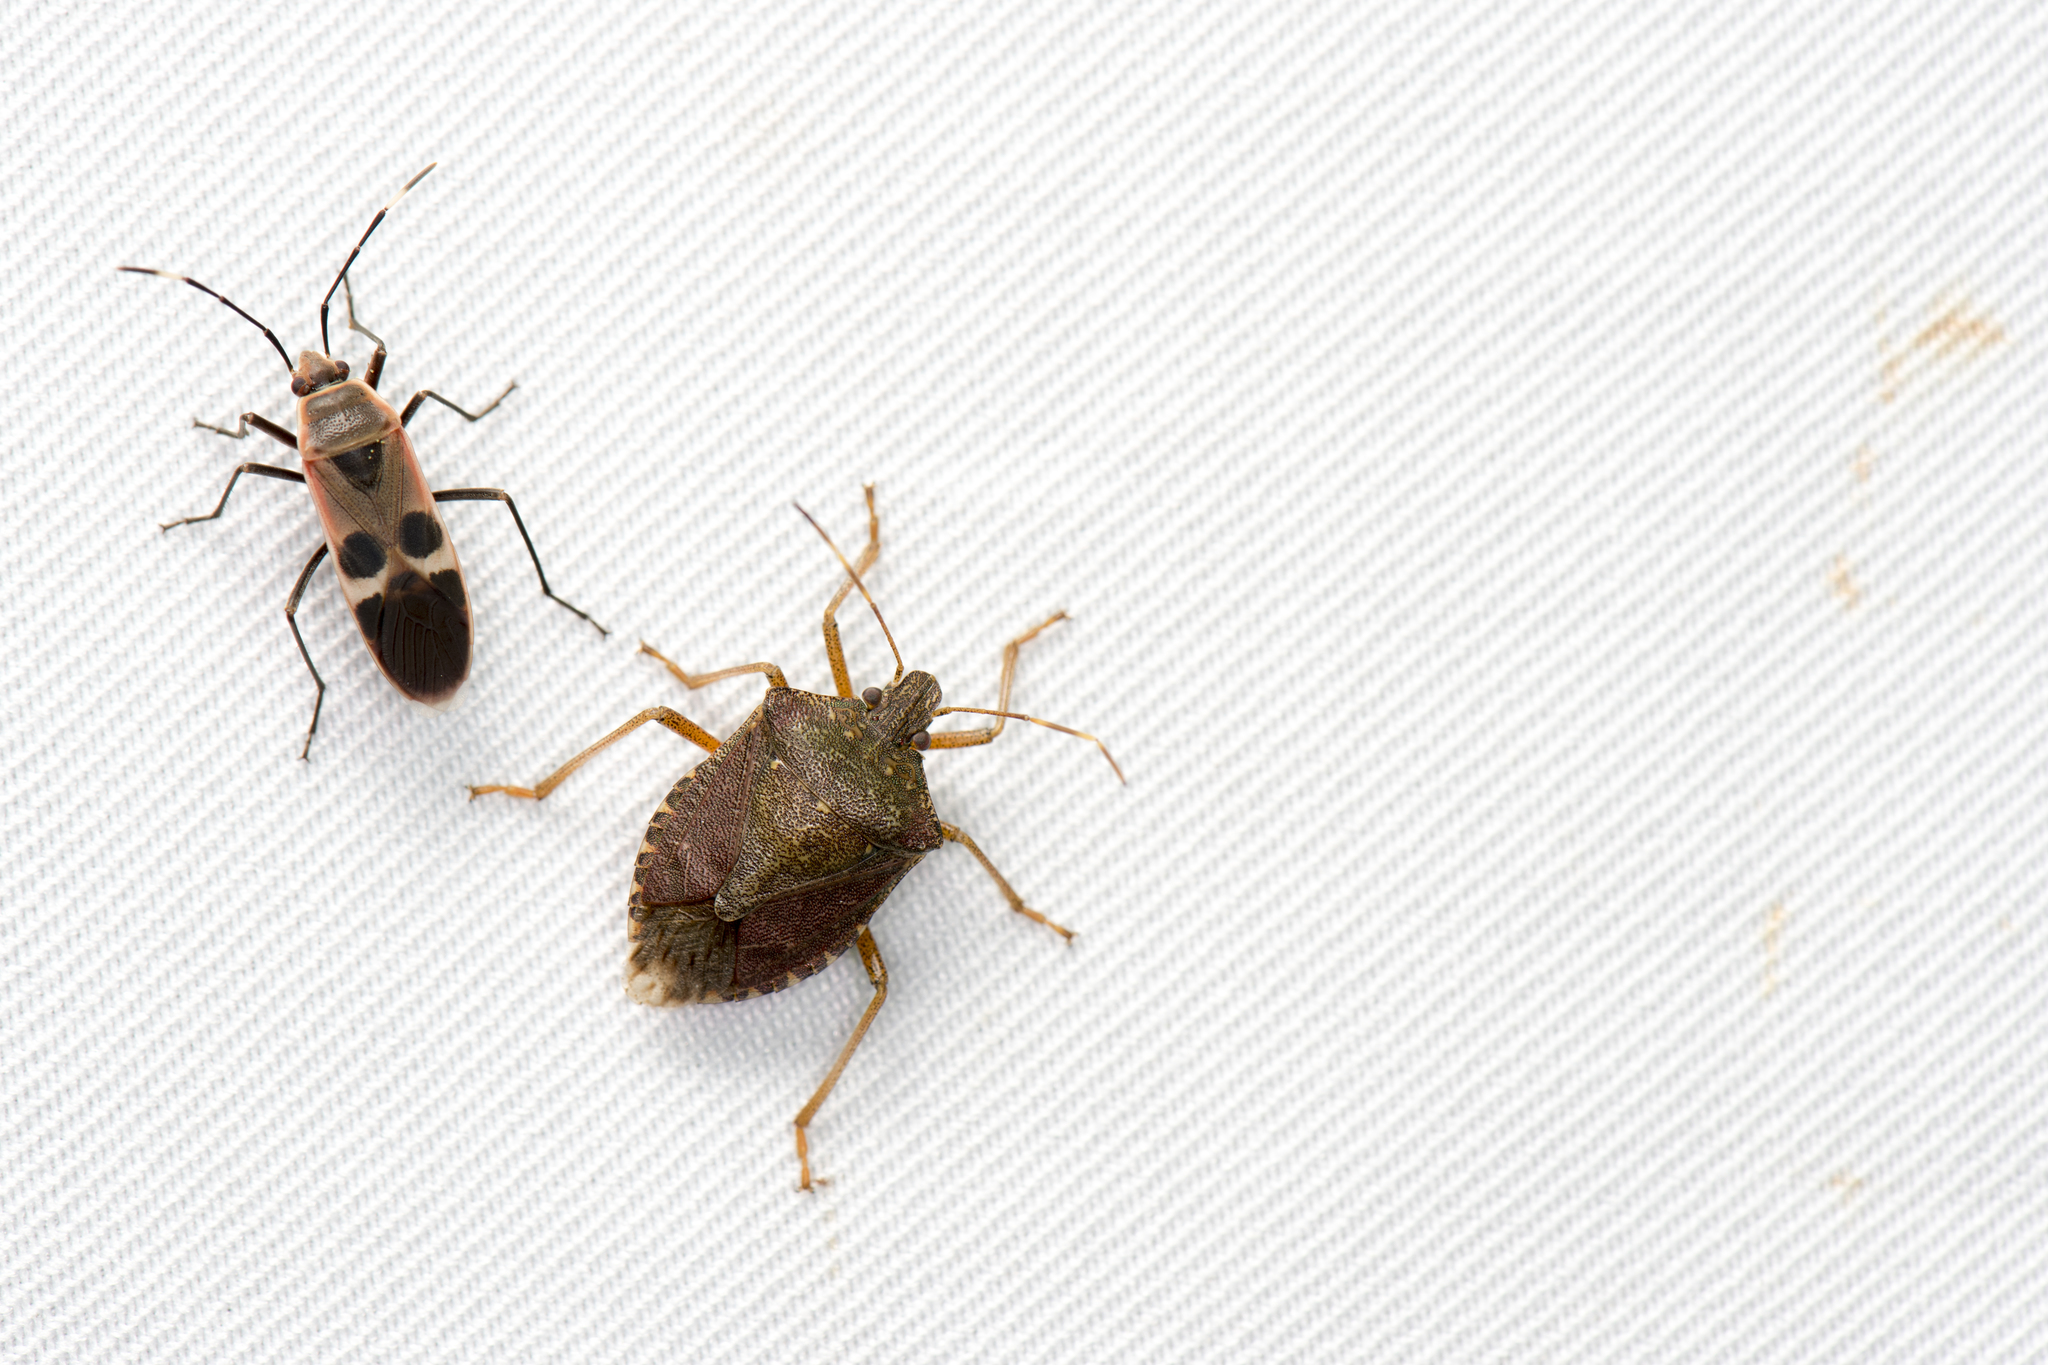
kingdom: Animalia
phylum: Arthropoda
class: Insecta
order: Hemiptera
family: Pentatomidae
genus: Halyomorpha
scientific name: Halyomorpha halys
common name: Brown marmorated stink bug
